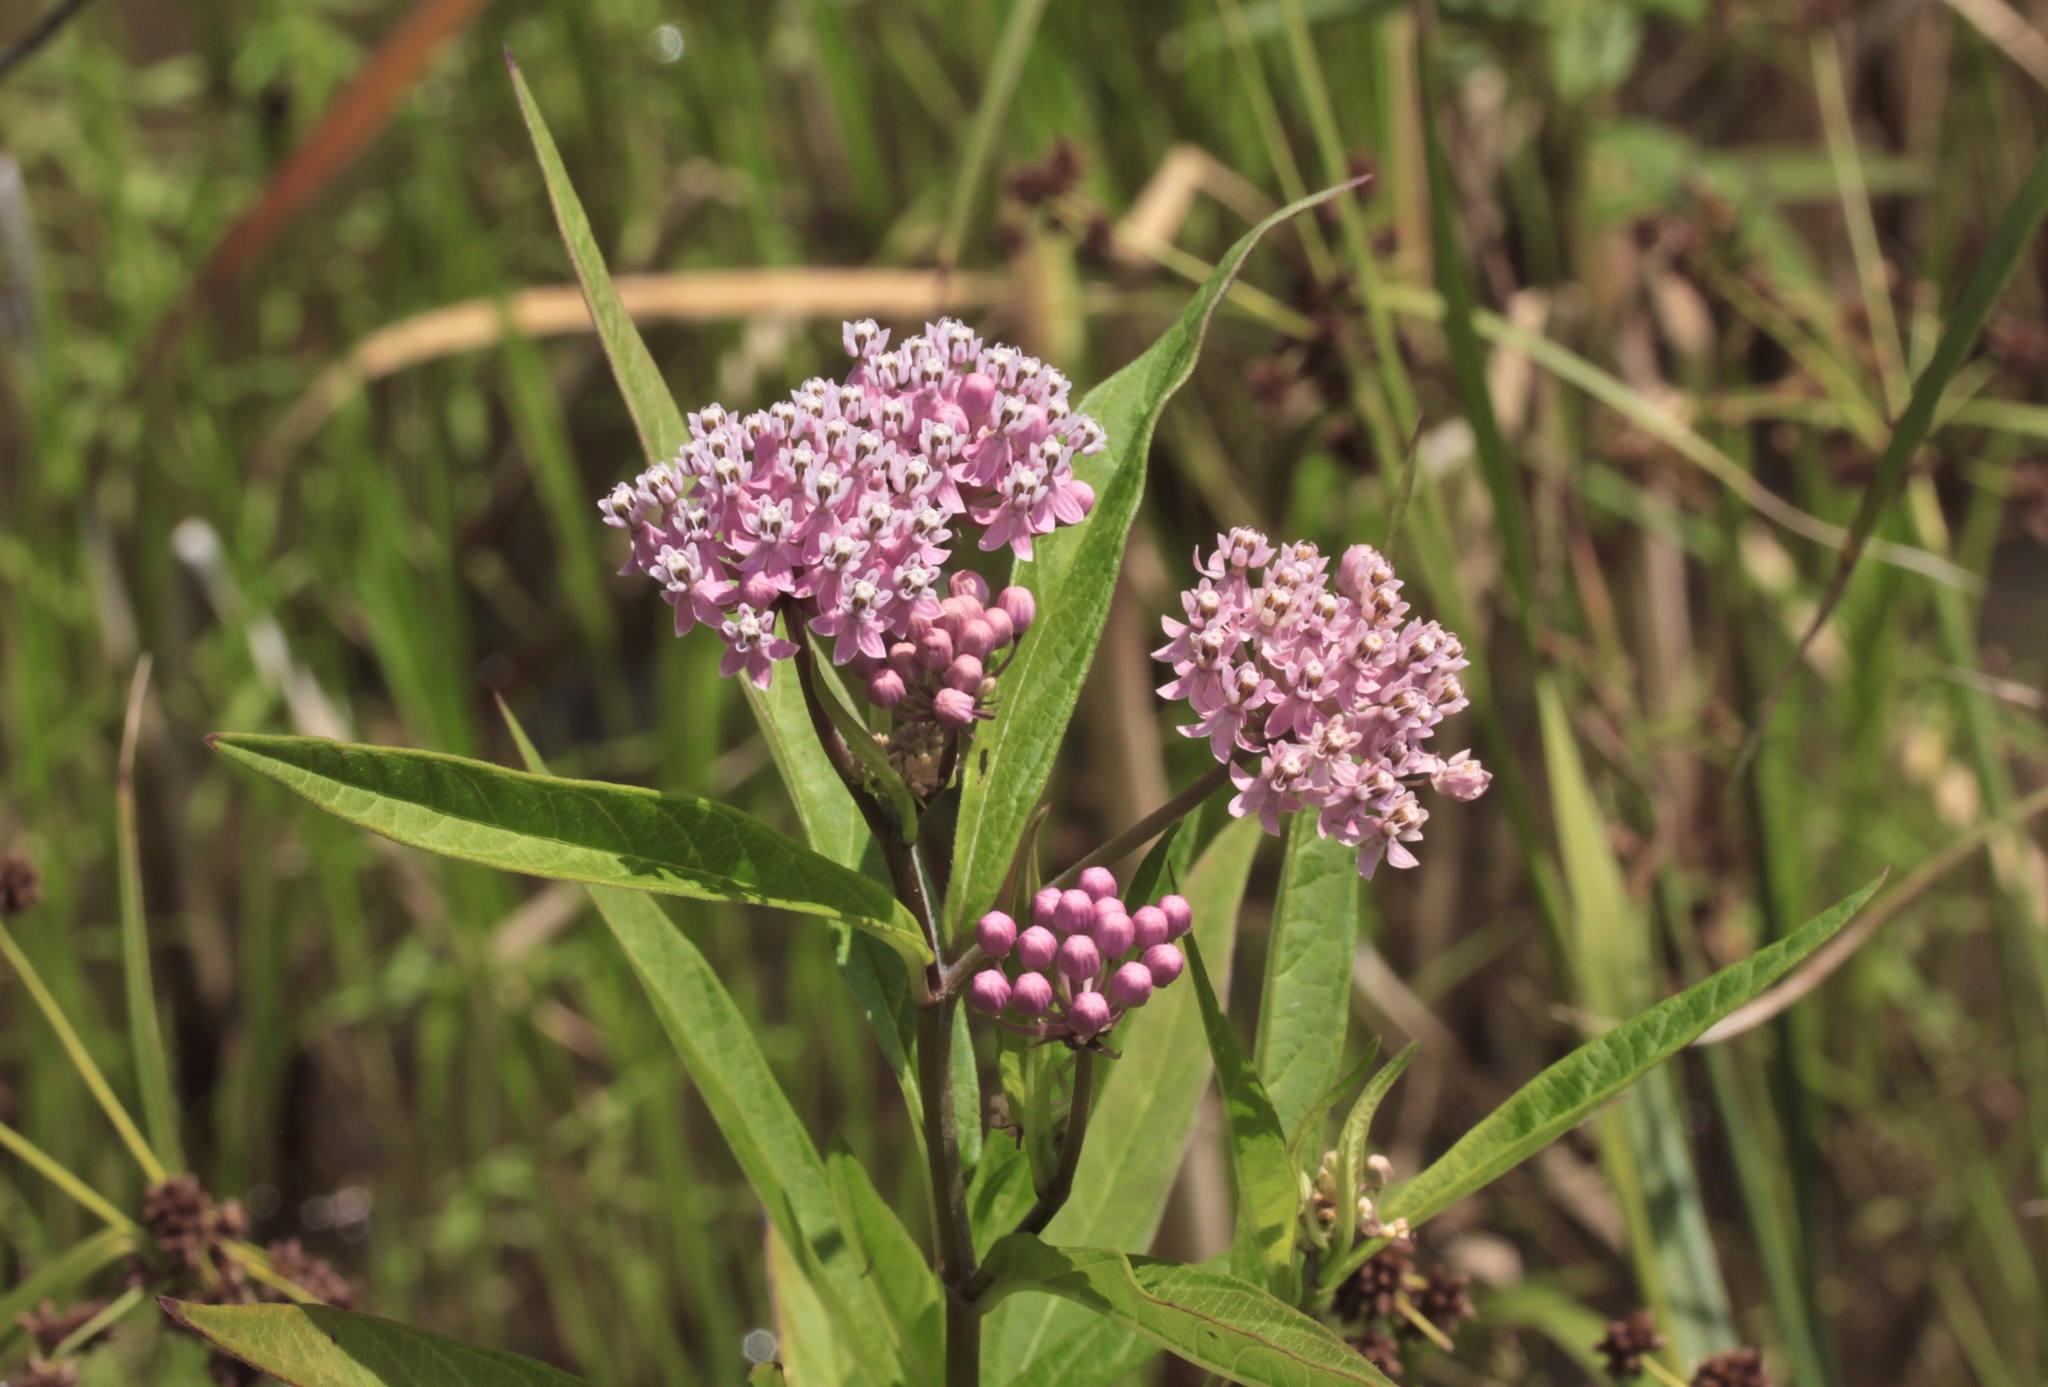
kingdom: Plantae
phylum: Tracheophyta
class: Magnoliopsida
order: Gentianales
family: Apocynaceae
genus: Asclepias
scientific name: Asclepias incarnata
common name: Swamp milkweed
